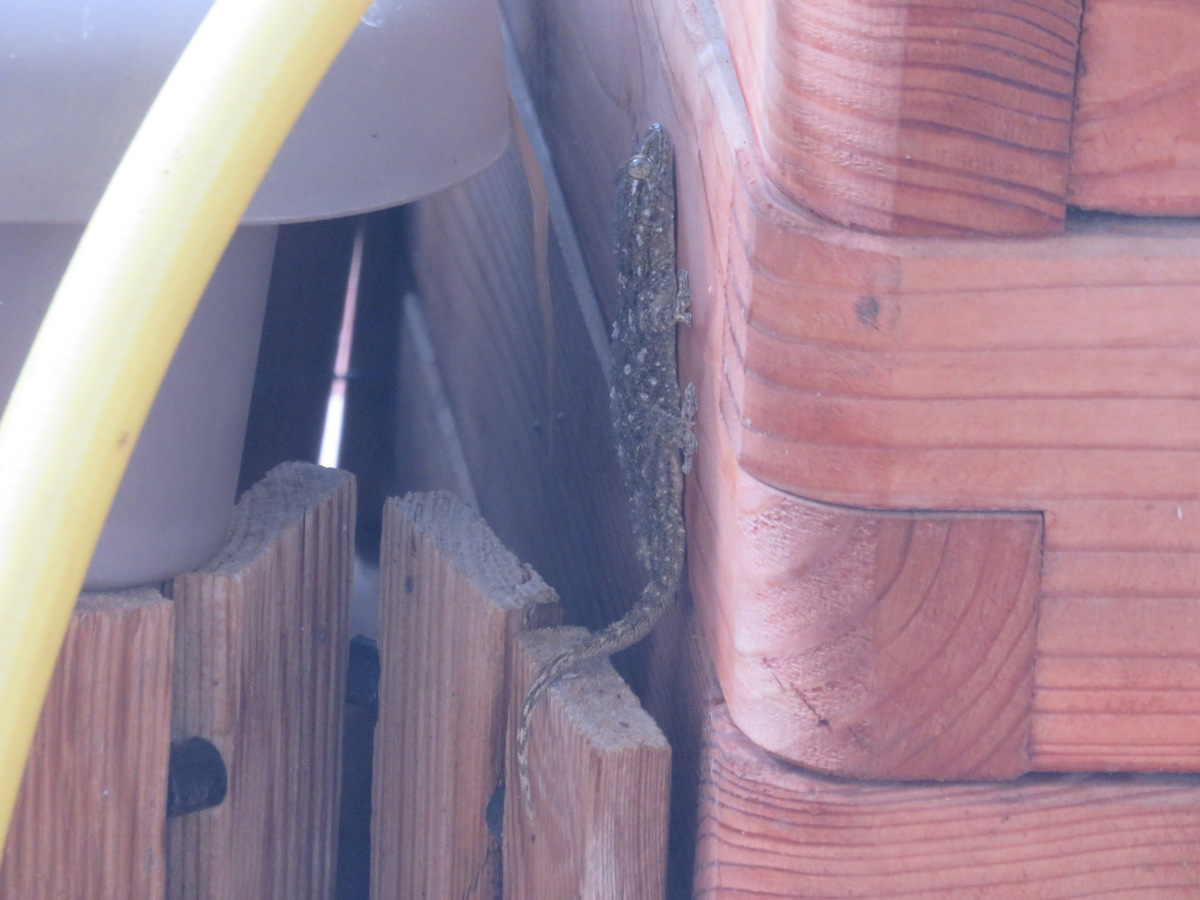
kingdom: Animalia
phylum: Chordata
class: Squamata
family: Phyllodactylidae
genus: Tarentola
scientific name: Tarentola mauritanica
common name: Moorish gecko
